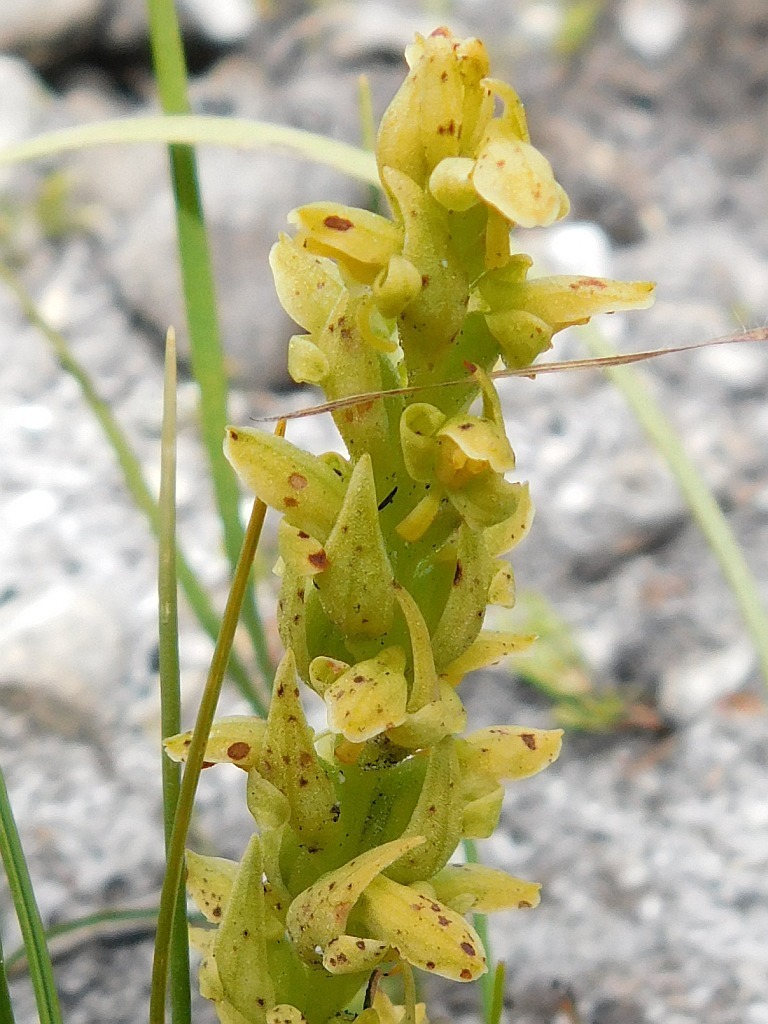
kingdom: Plantae
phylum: Tracheophyta
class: Liliopsida
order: Asparagales
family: Orchidaceae
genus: Disa
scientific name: Disa cylindrica
